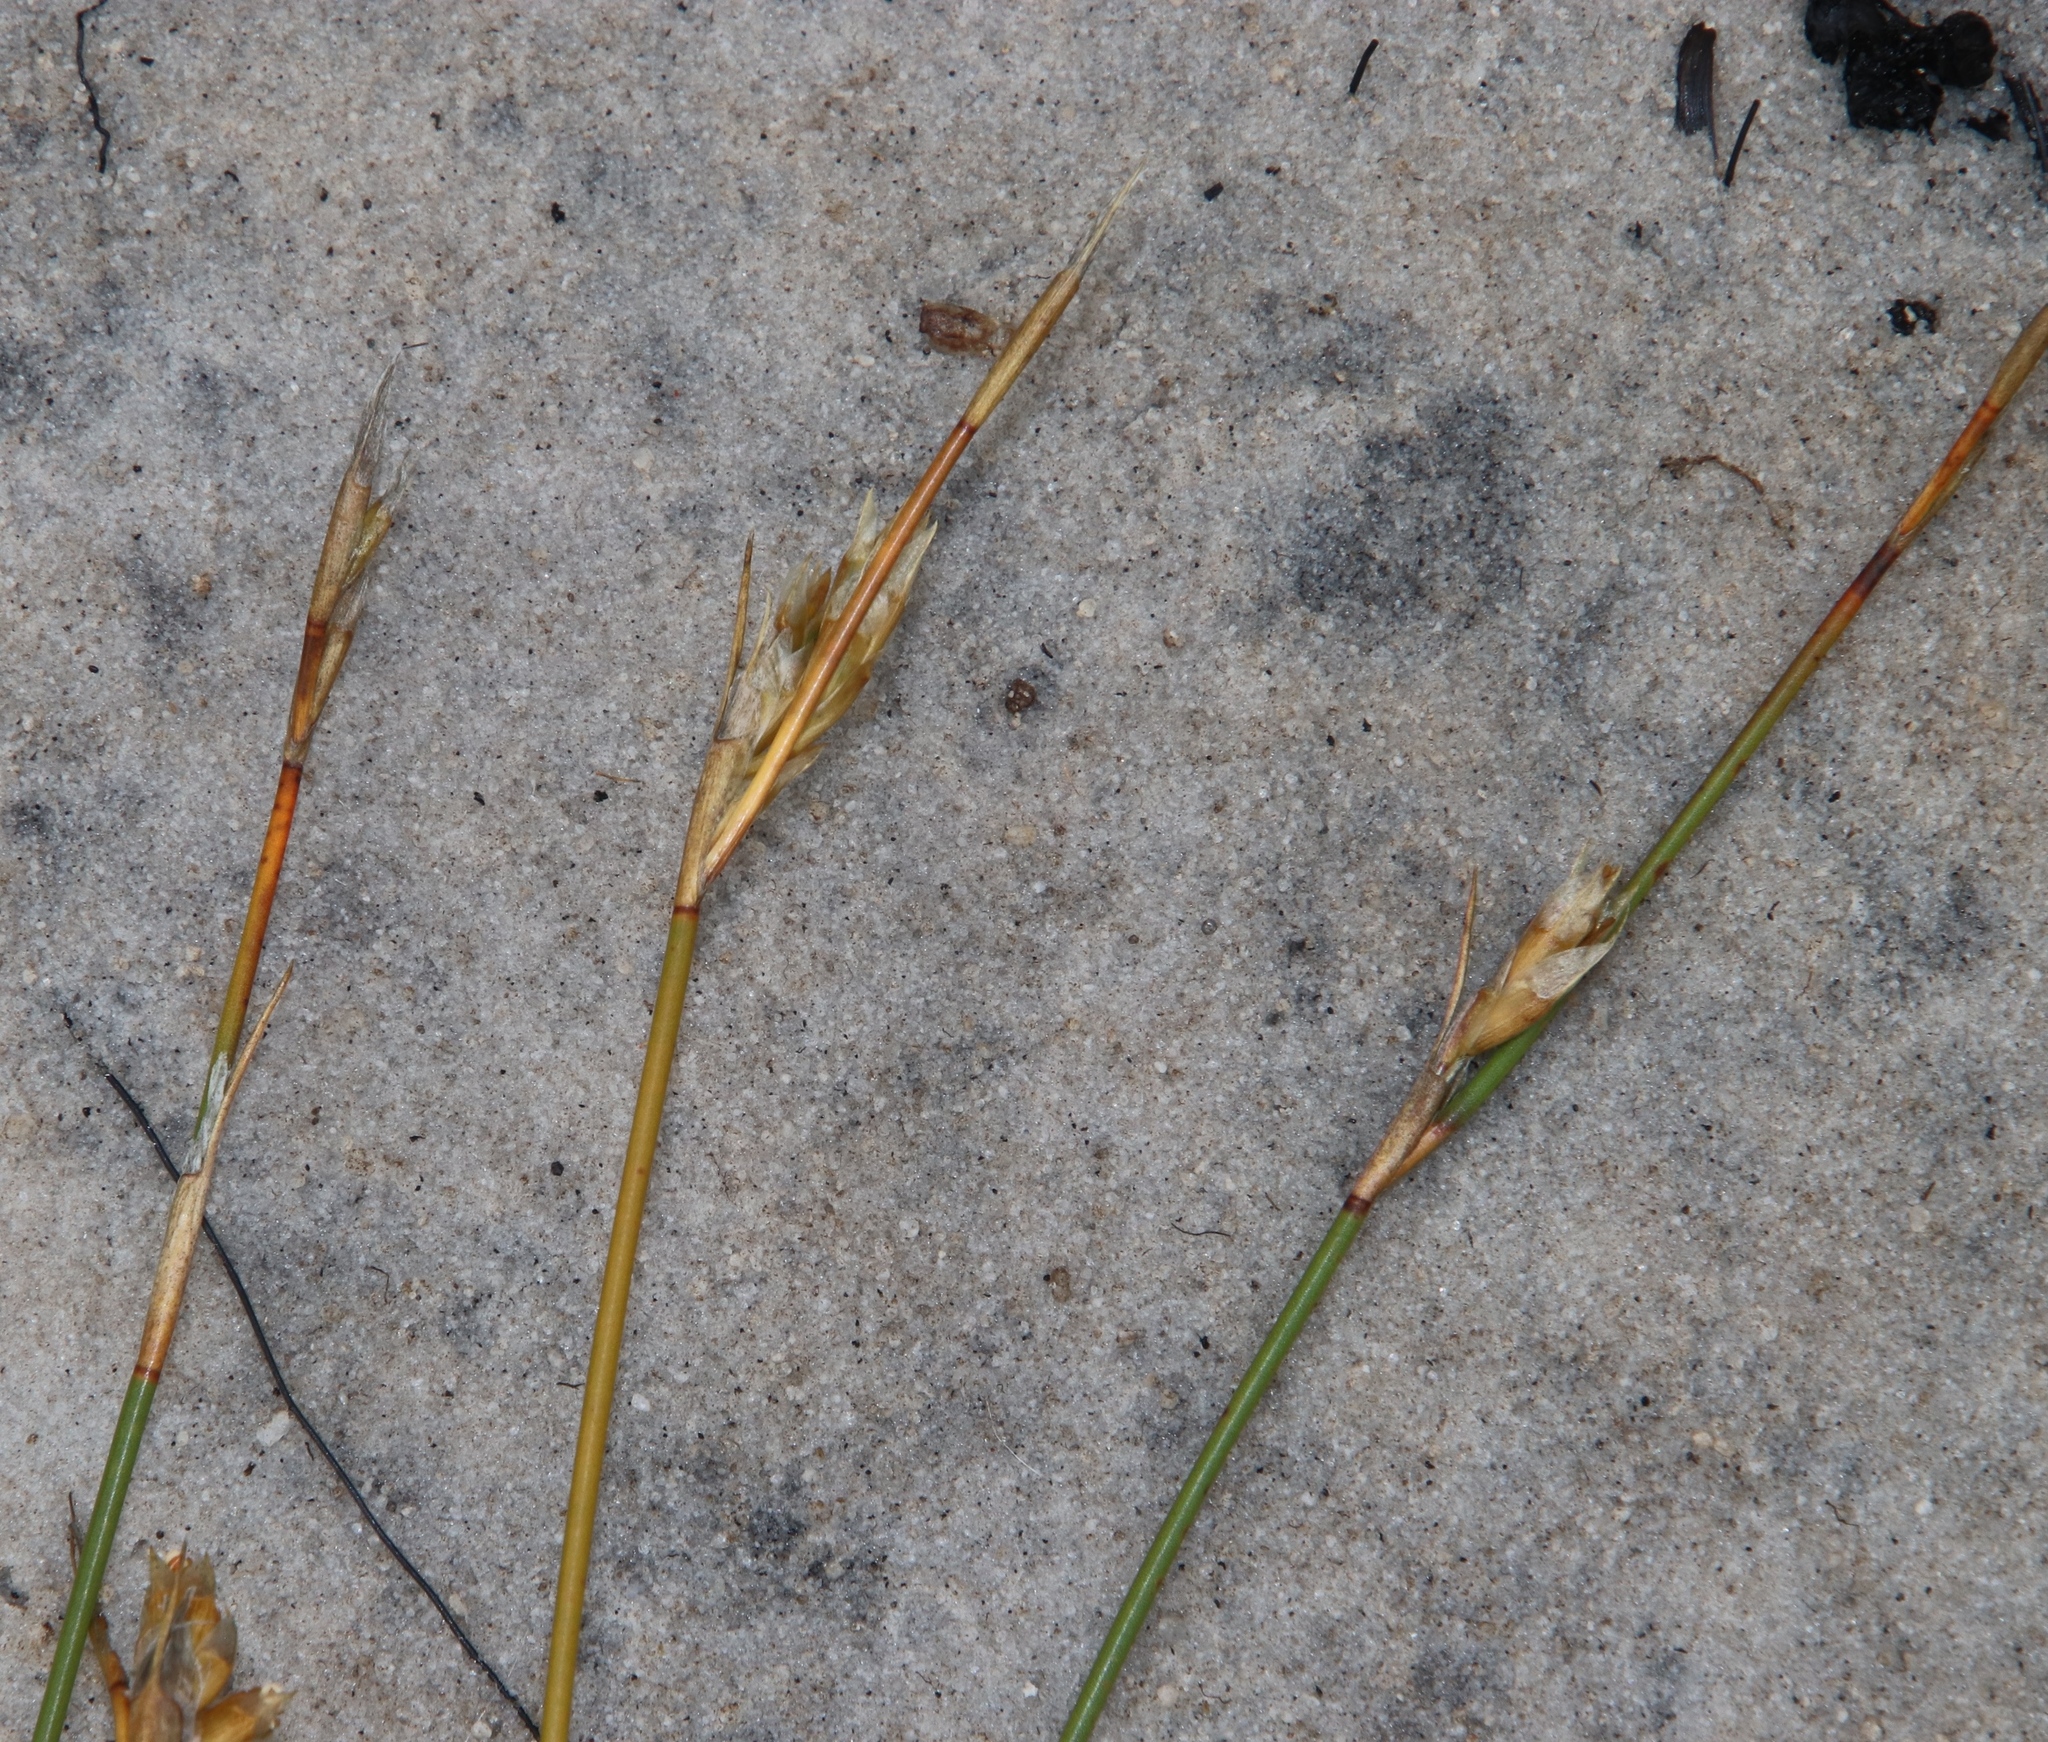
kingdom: Plantae
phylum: Tracheophyta
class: Liliopsida
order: Poales
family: Restionaceae
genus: Restio
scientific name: Restio dodii
